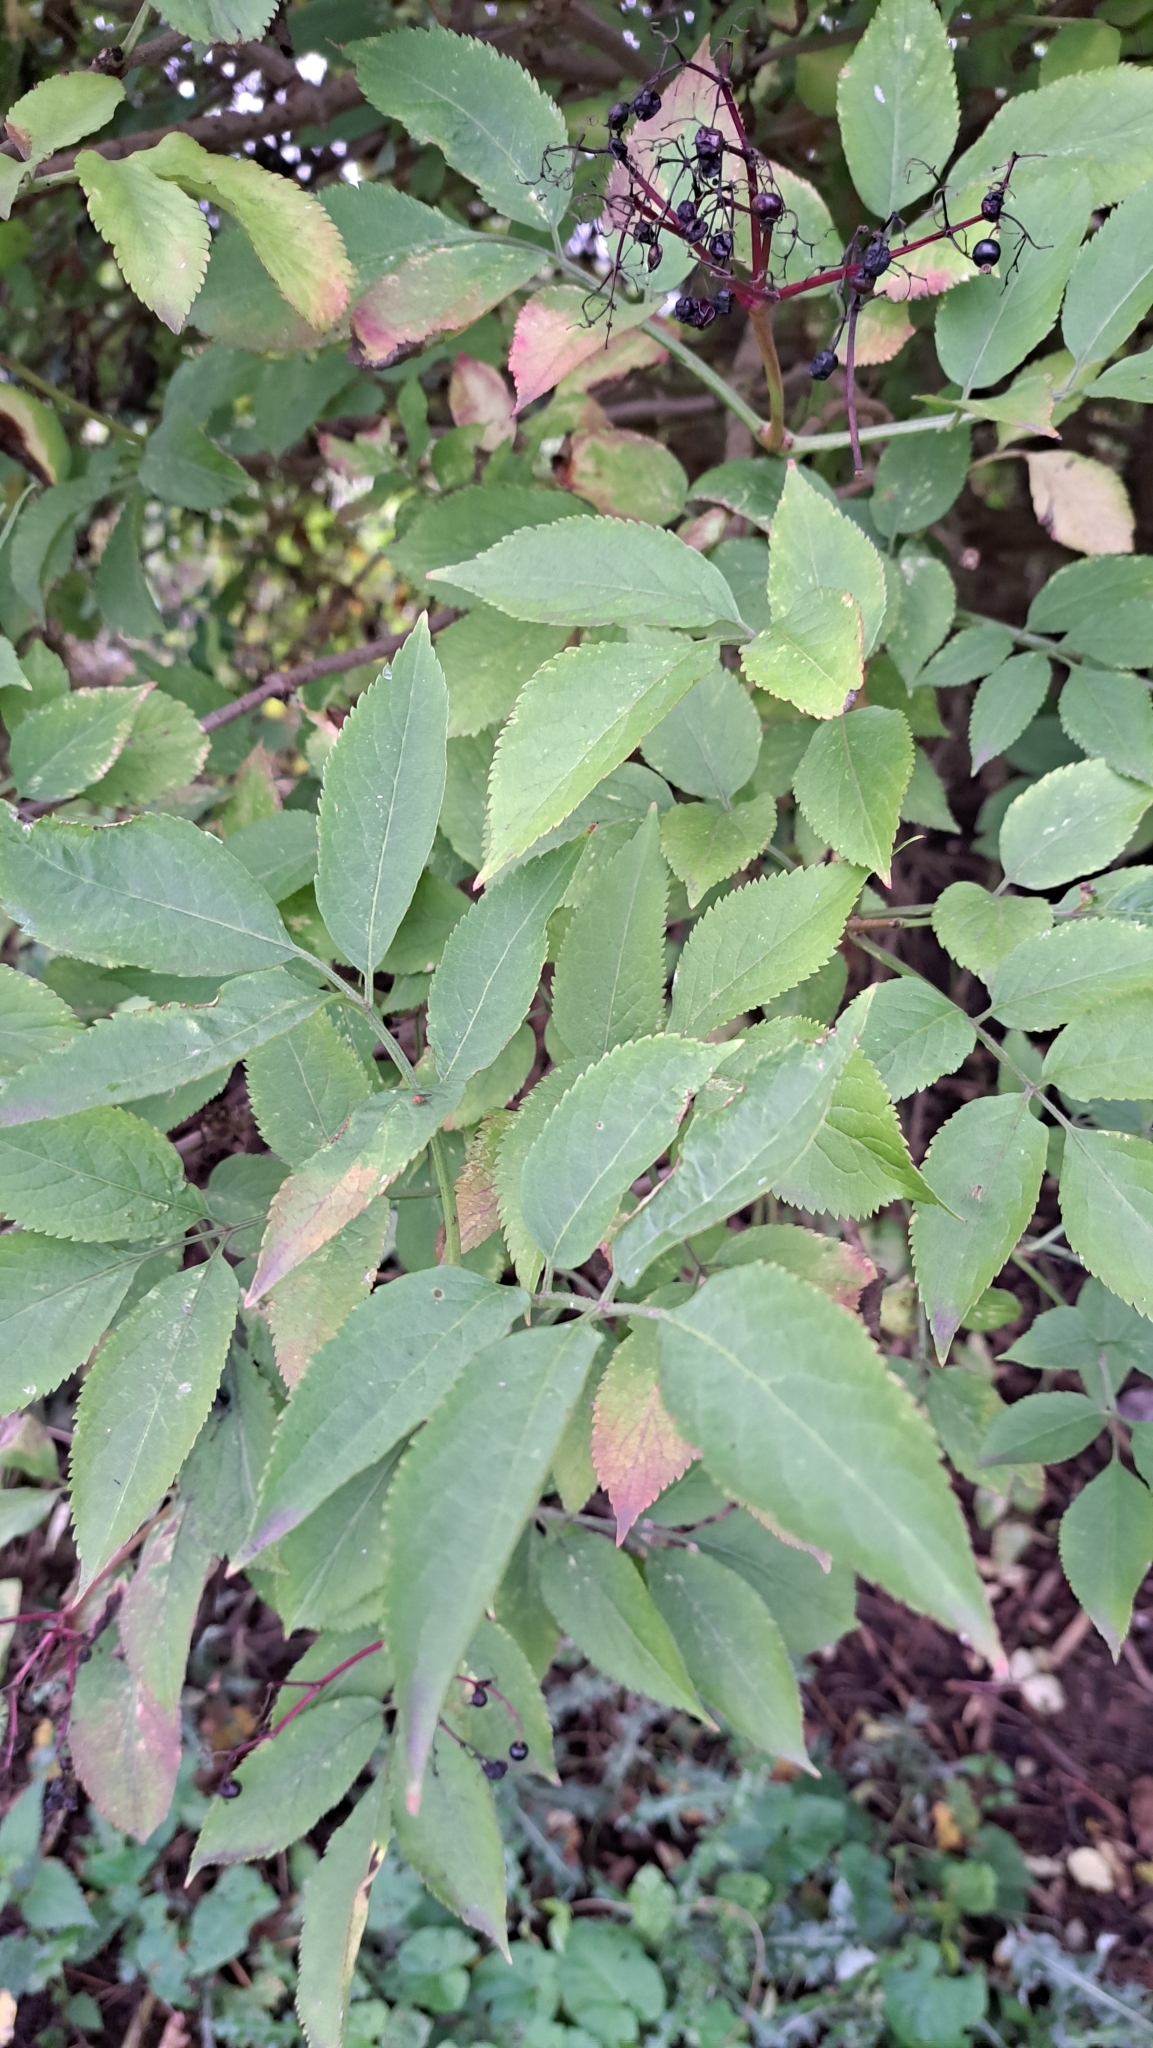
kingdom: Plantae
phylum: Tracheophyta
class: Magnoliopsida
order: Dipsacales
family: Viburnaceae
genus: Sambucus
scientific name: Sambucus nigra
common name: Elder
